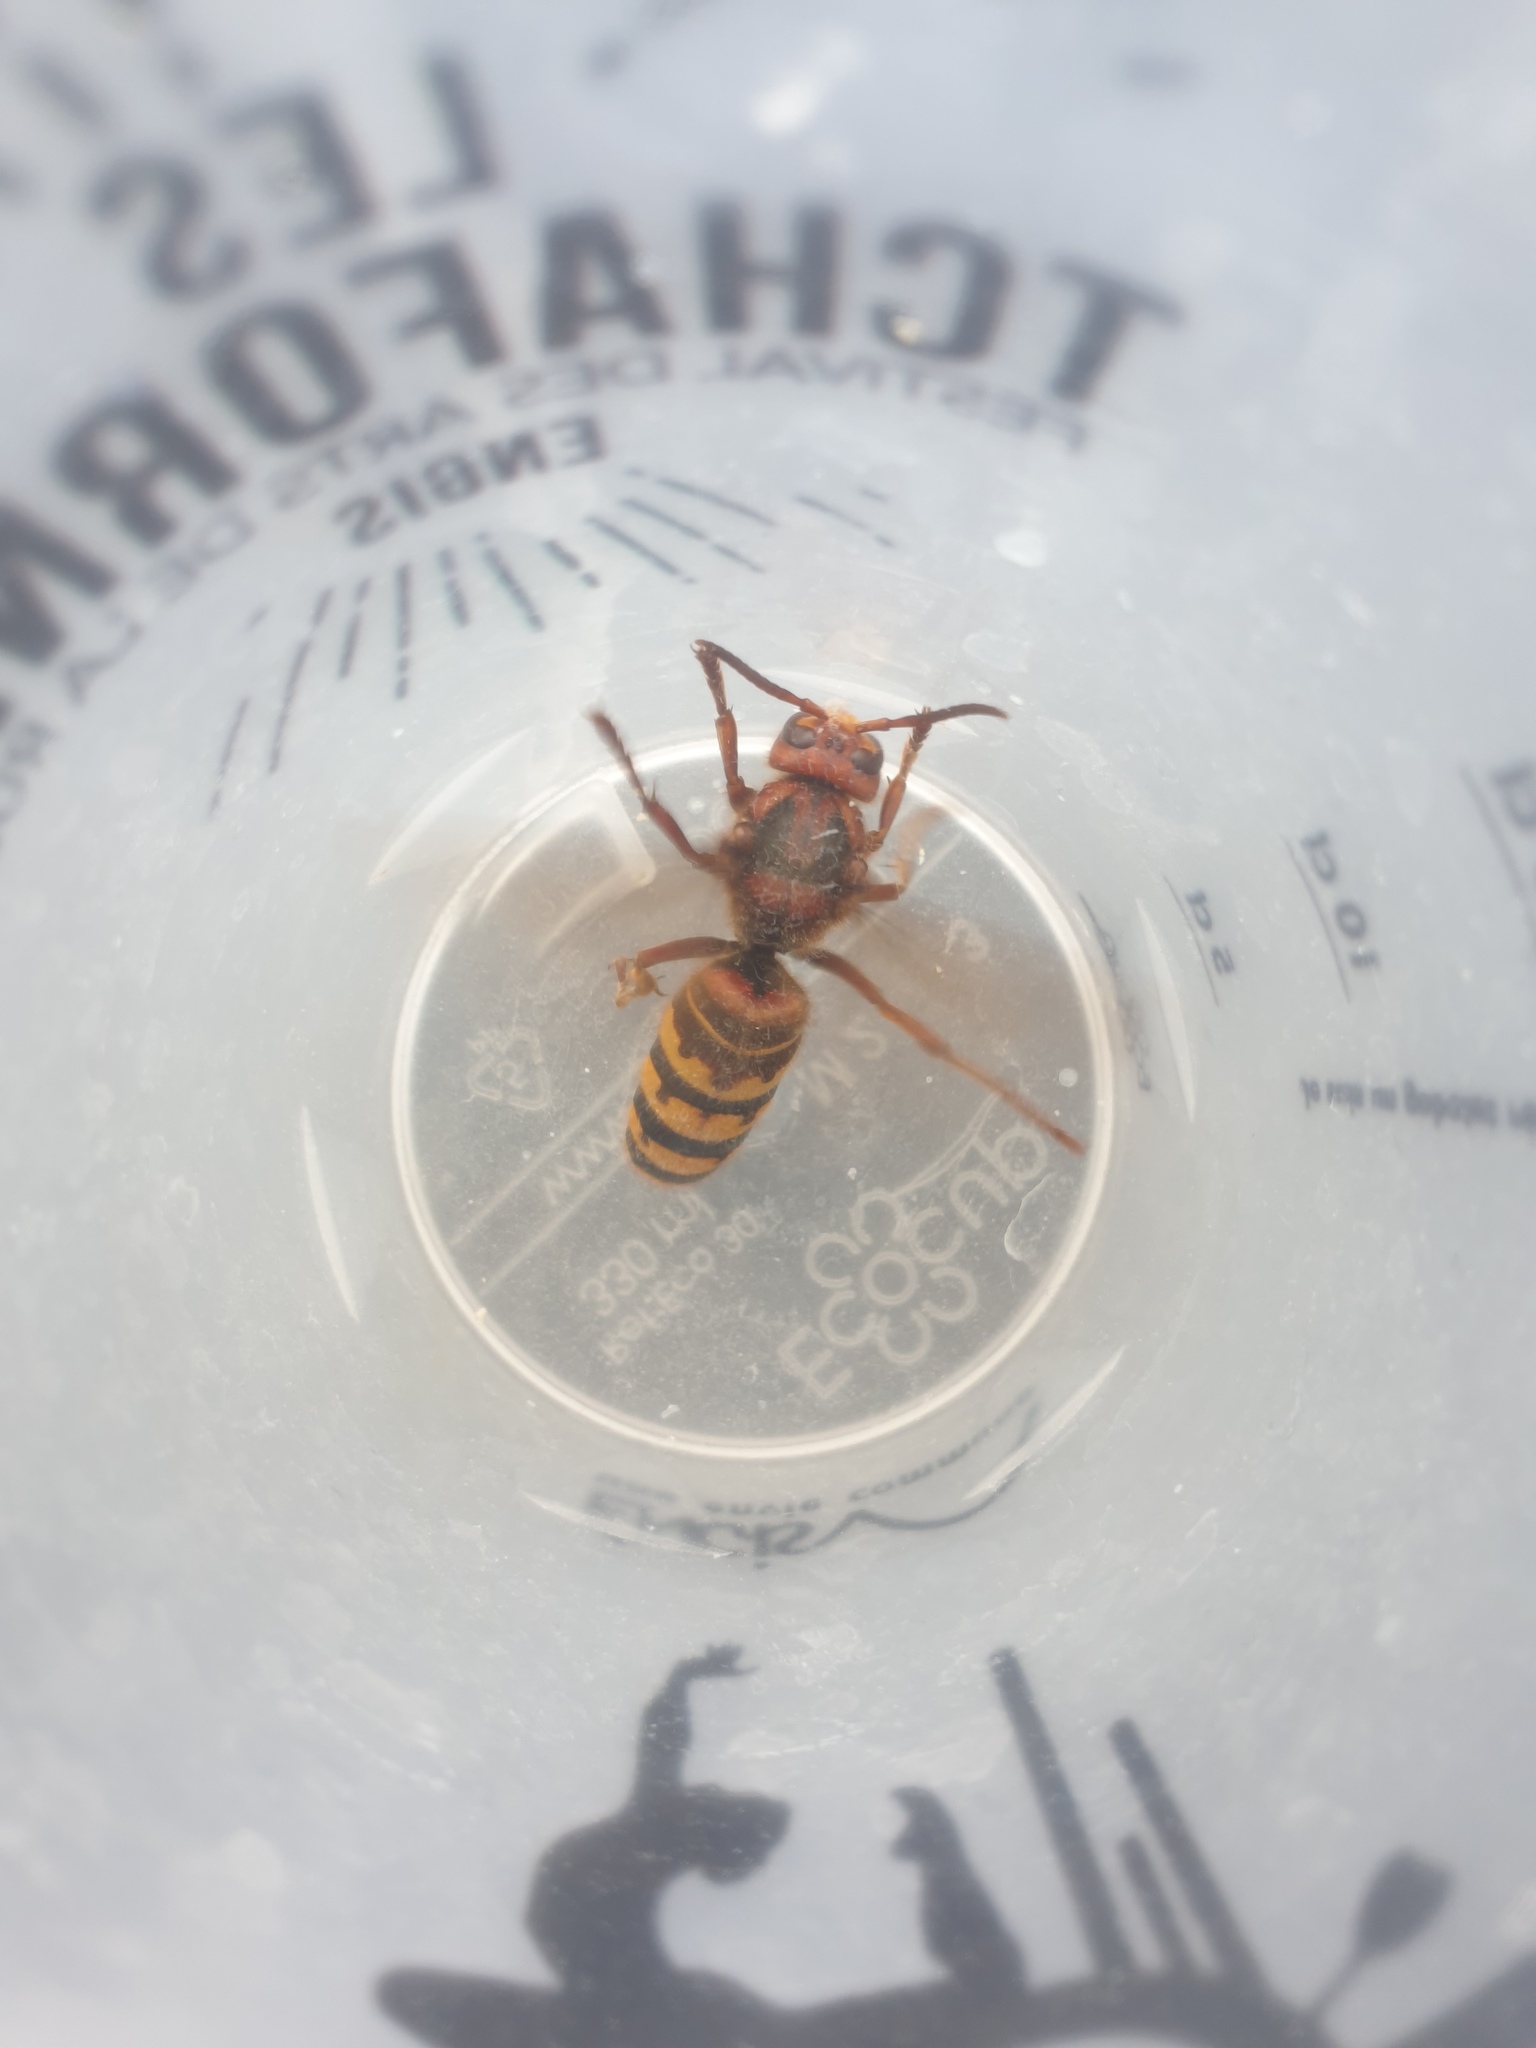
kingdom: Animalia
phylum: Arthropoda
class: Insecta
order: Hymenoptera
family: Vespidae
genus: Vespa
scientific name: Vespa crabro
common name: Hornet
